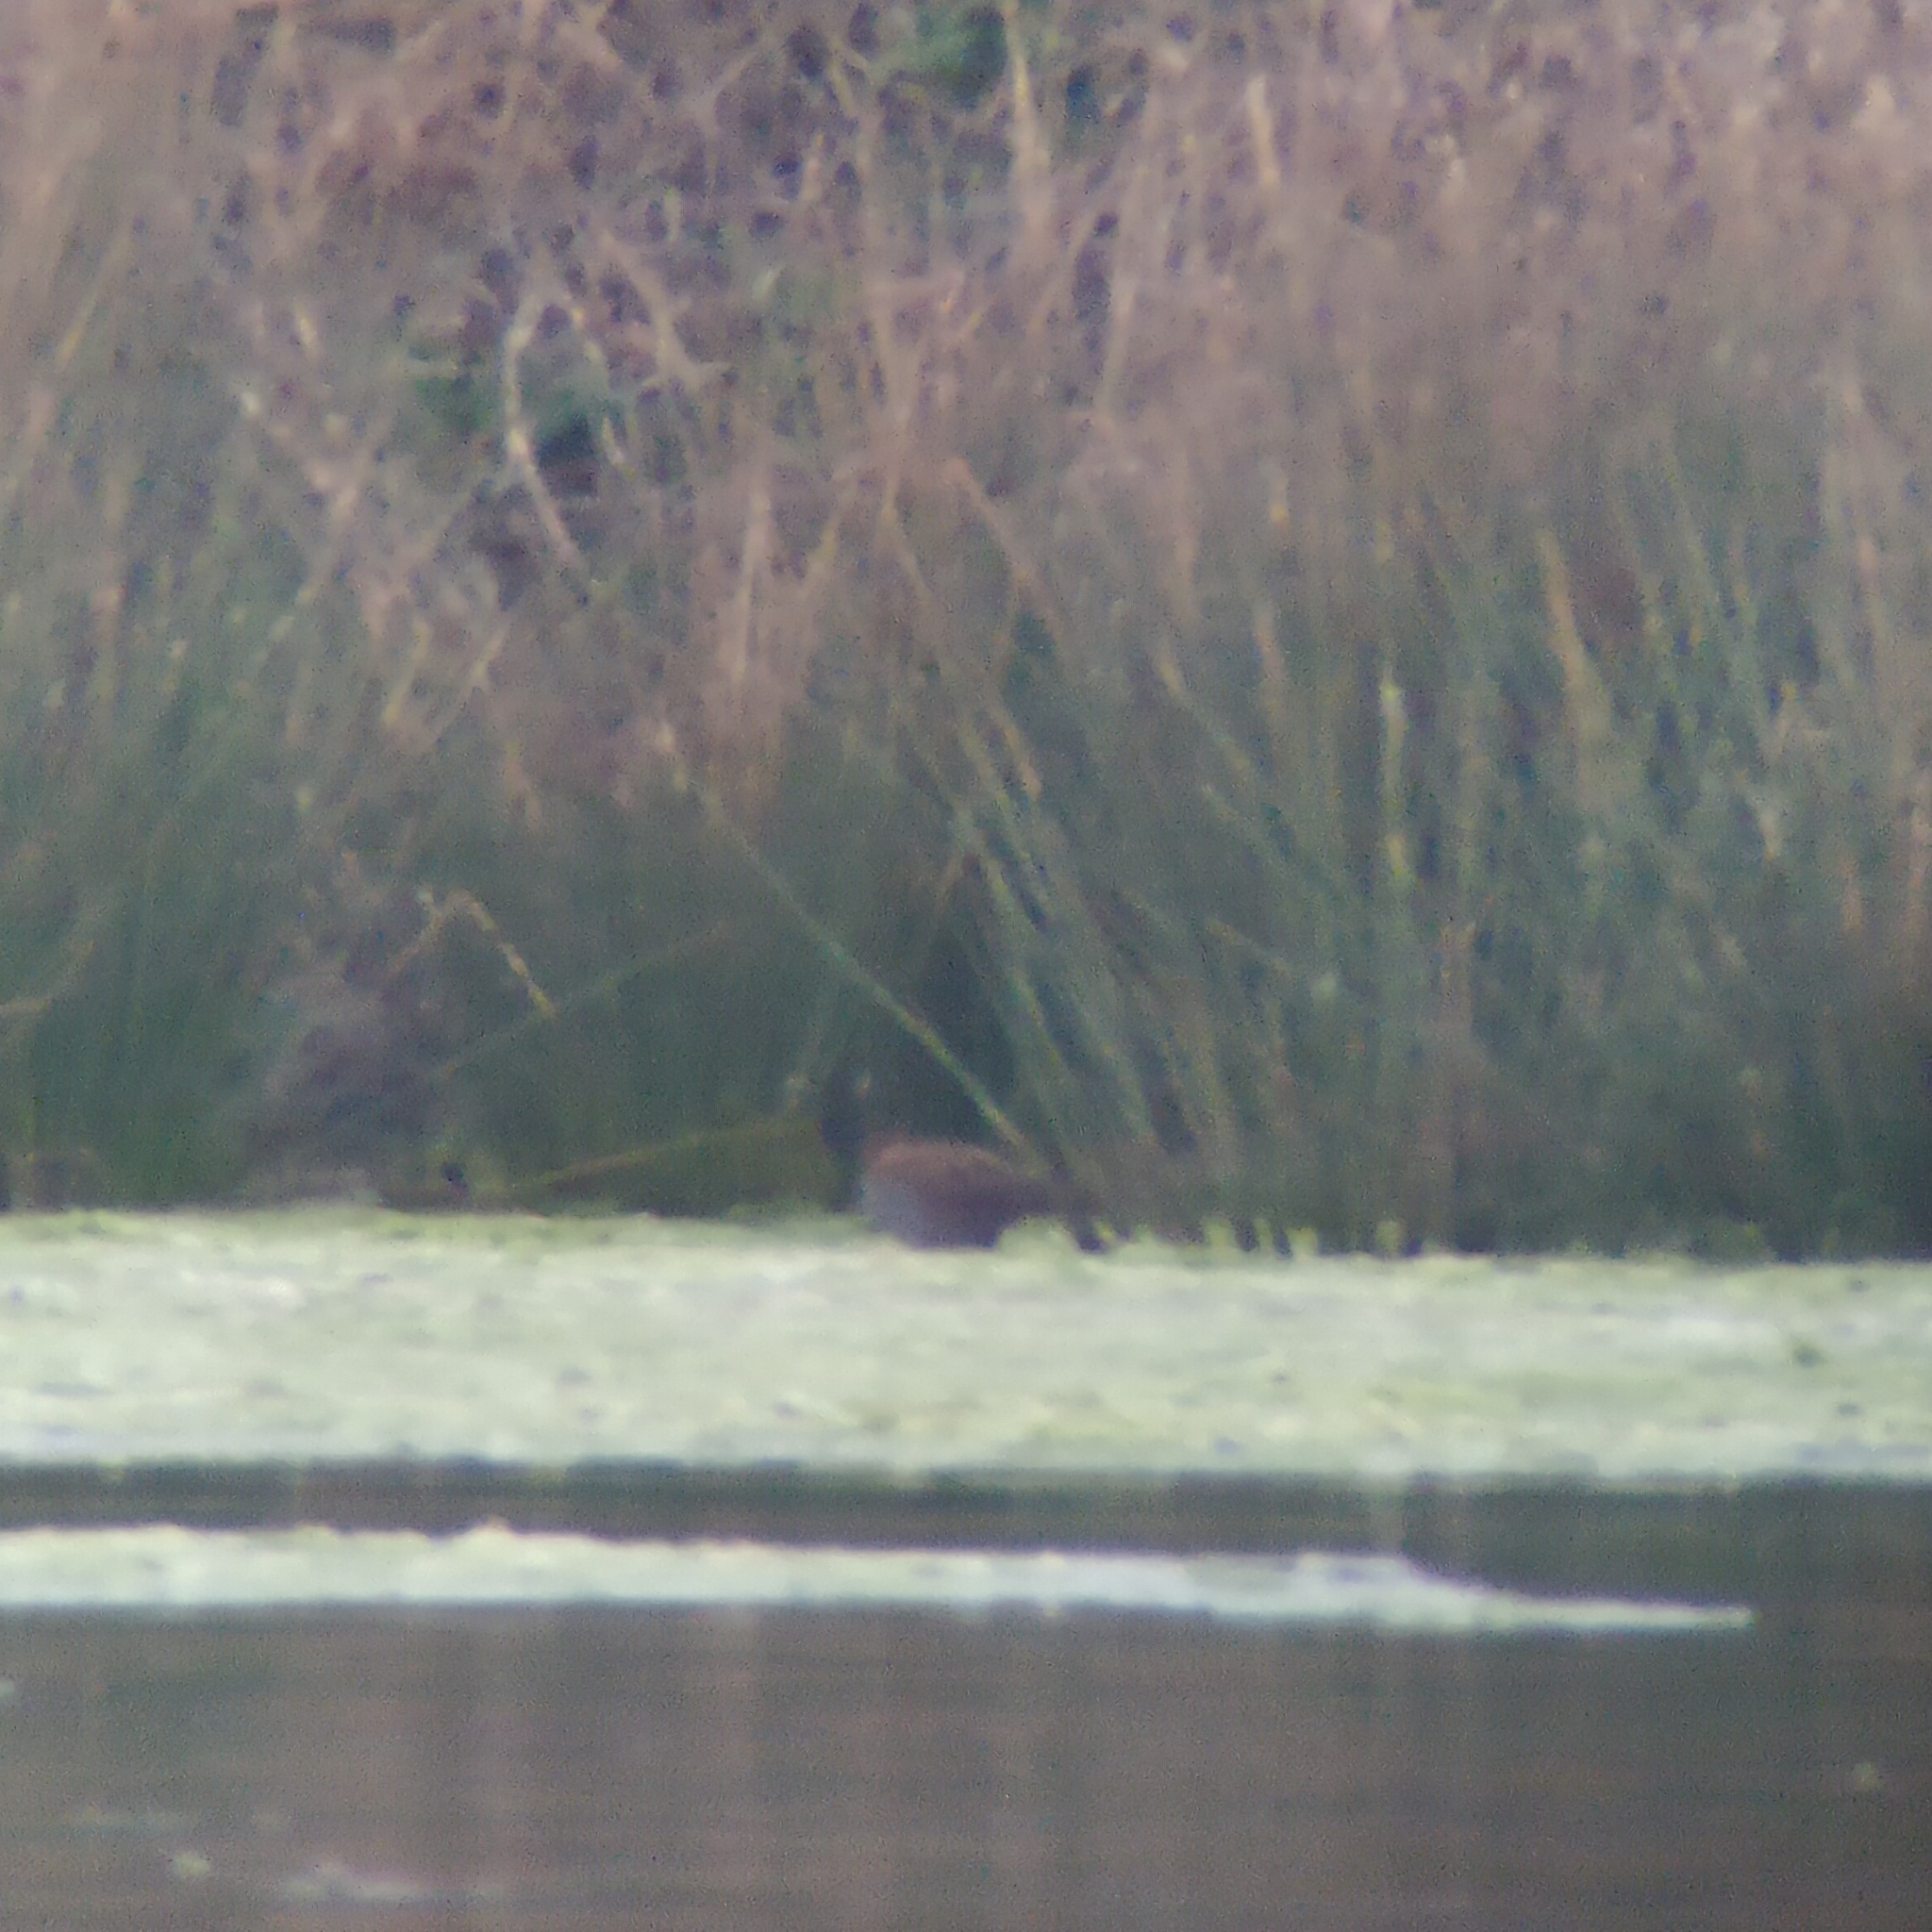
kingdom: Animalia
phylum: Chordata
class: Aves
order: Gruiformes
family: Rallidae
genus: Porzana
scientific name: Porzana parva
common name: Little crake
